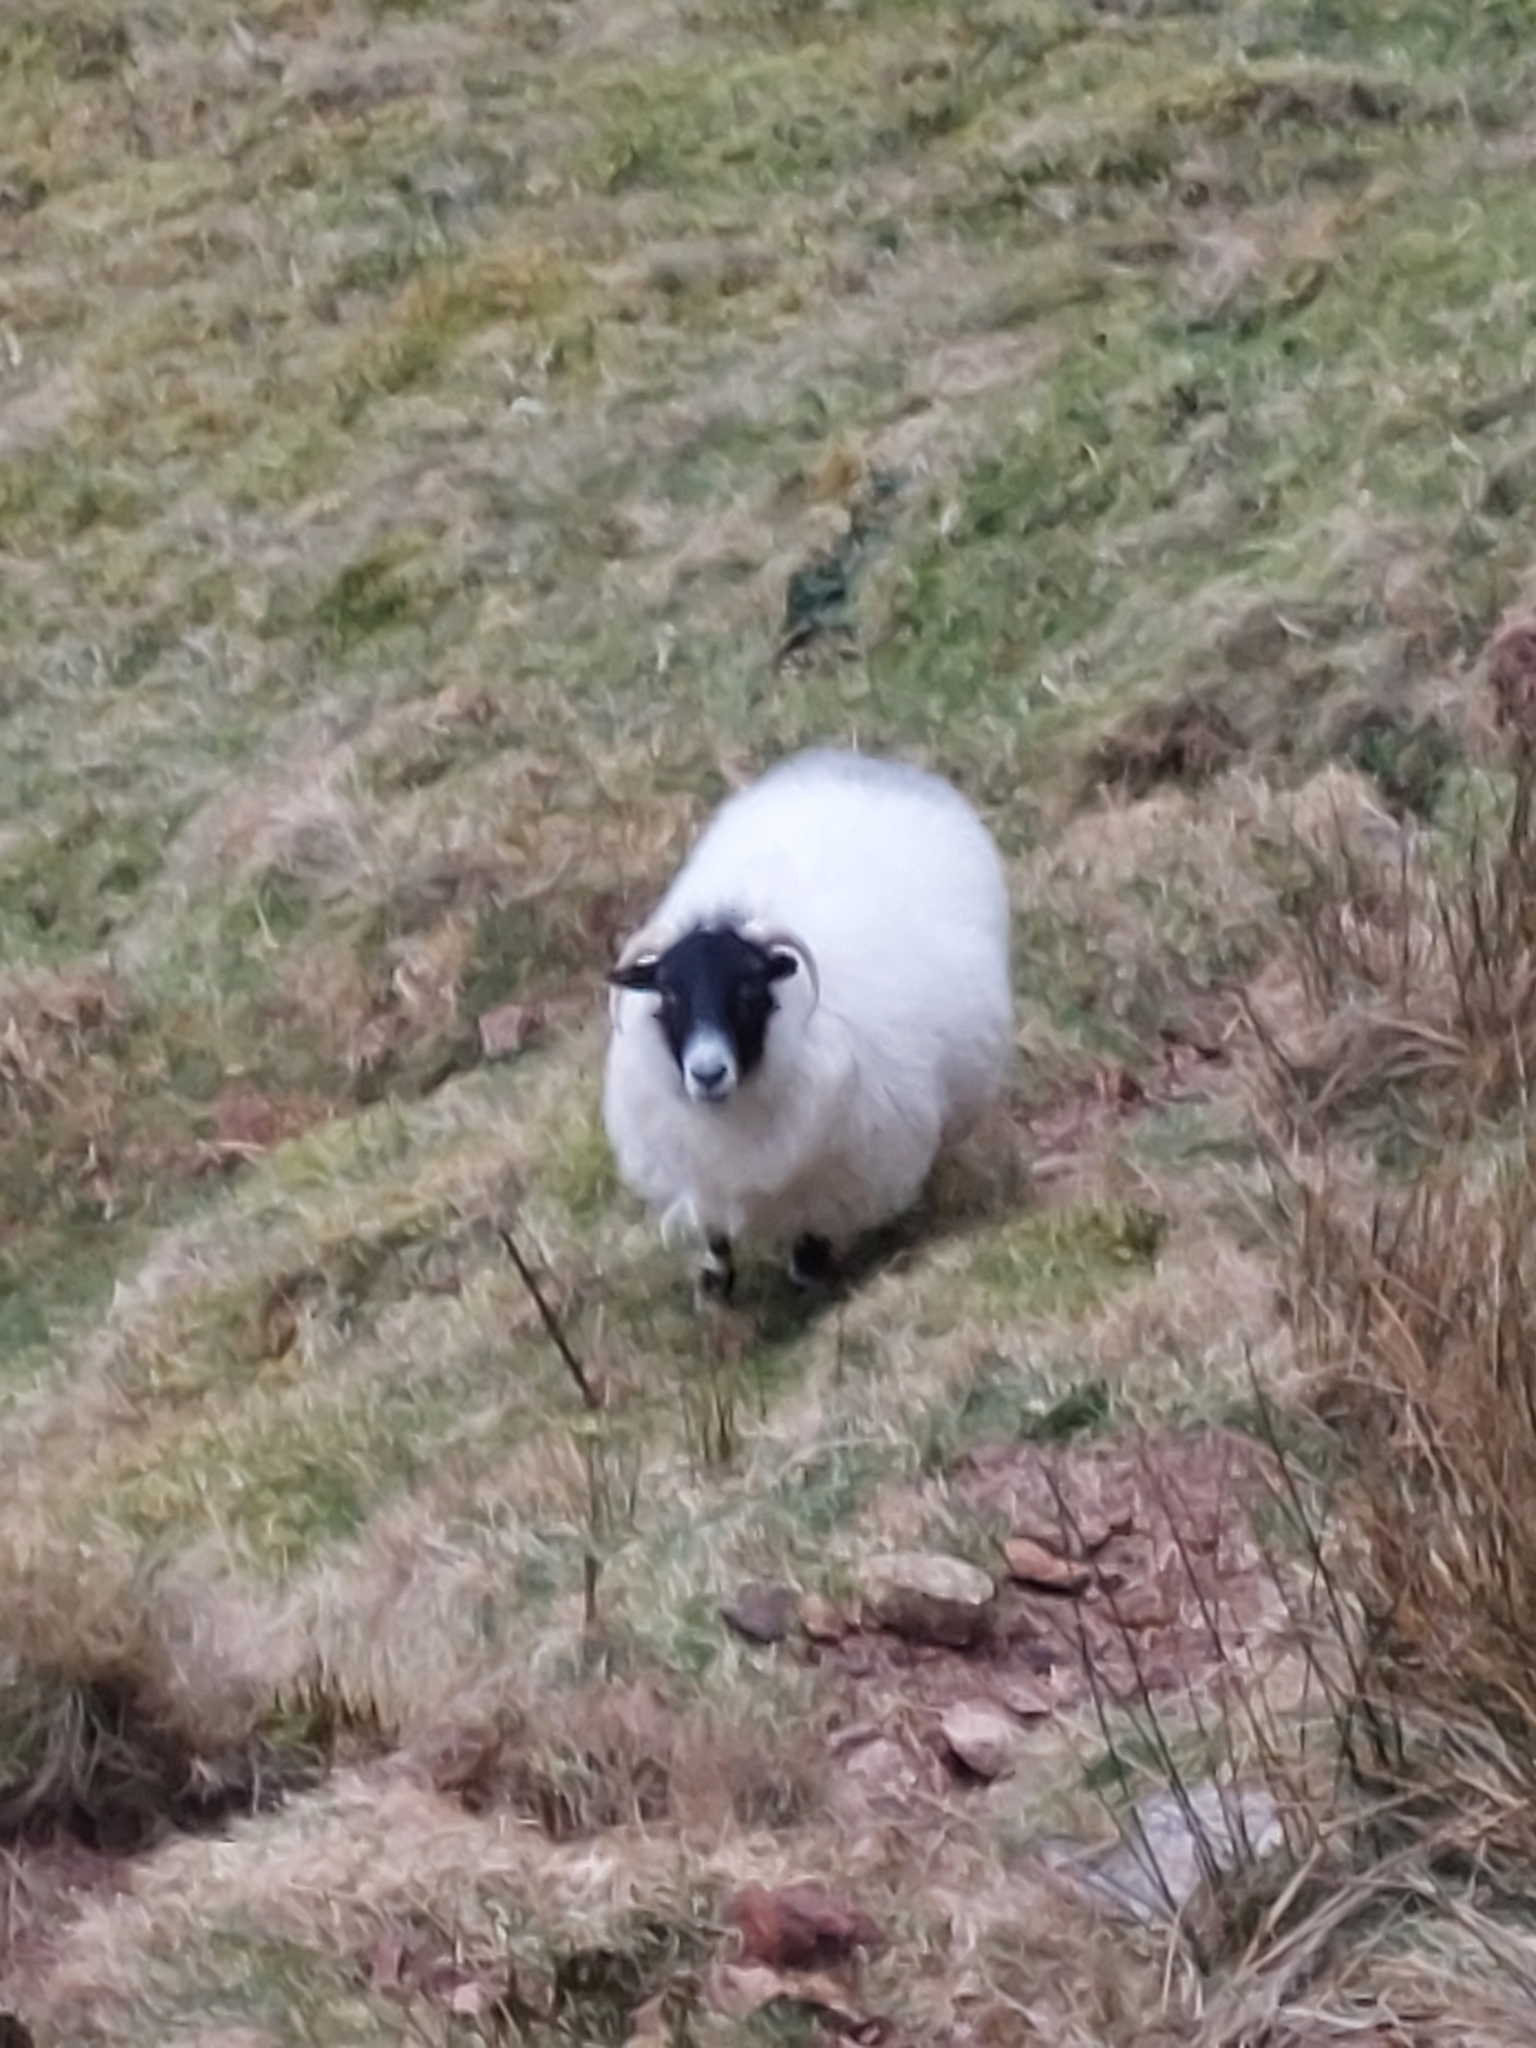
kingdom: Animalia
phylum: Chordata
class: Mammalia
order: Artiodactyla
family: Bovidae
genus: Ovis
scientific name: Ovis aries
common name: Domestic sheep
